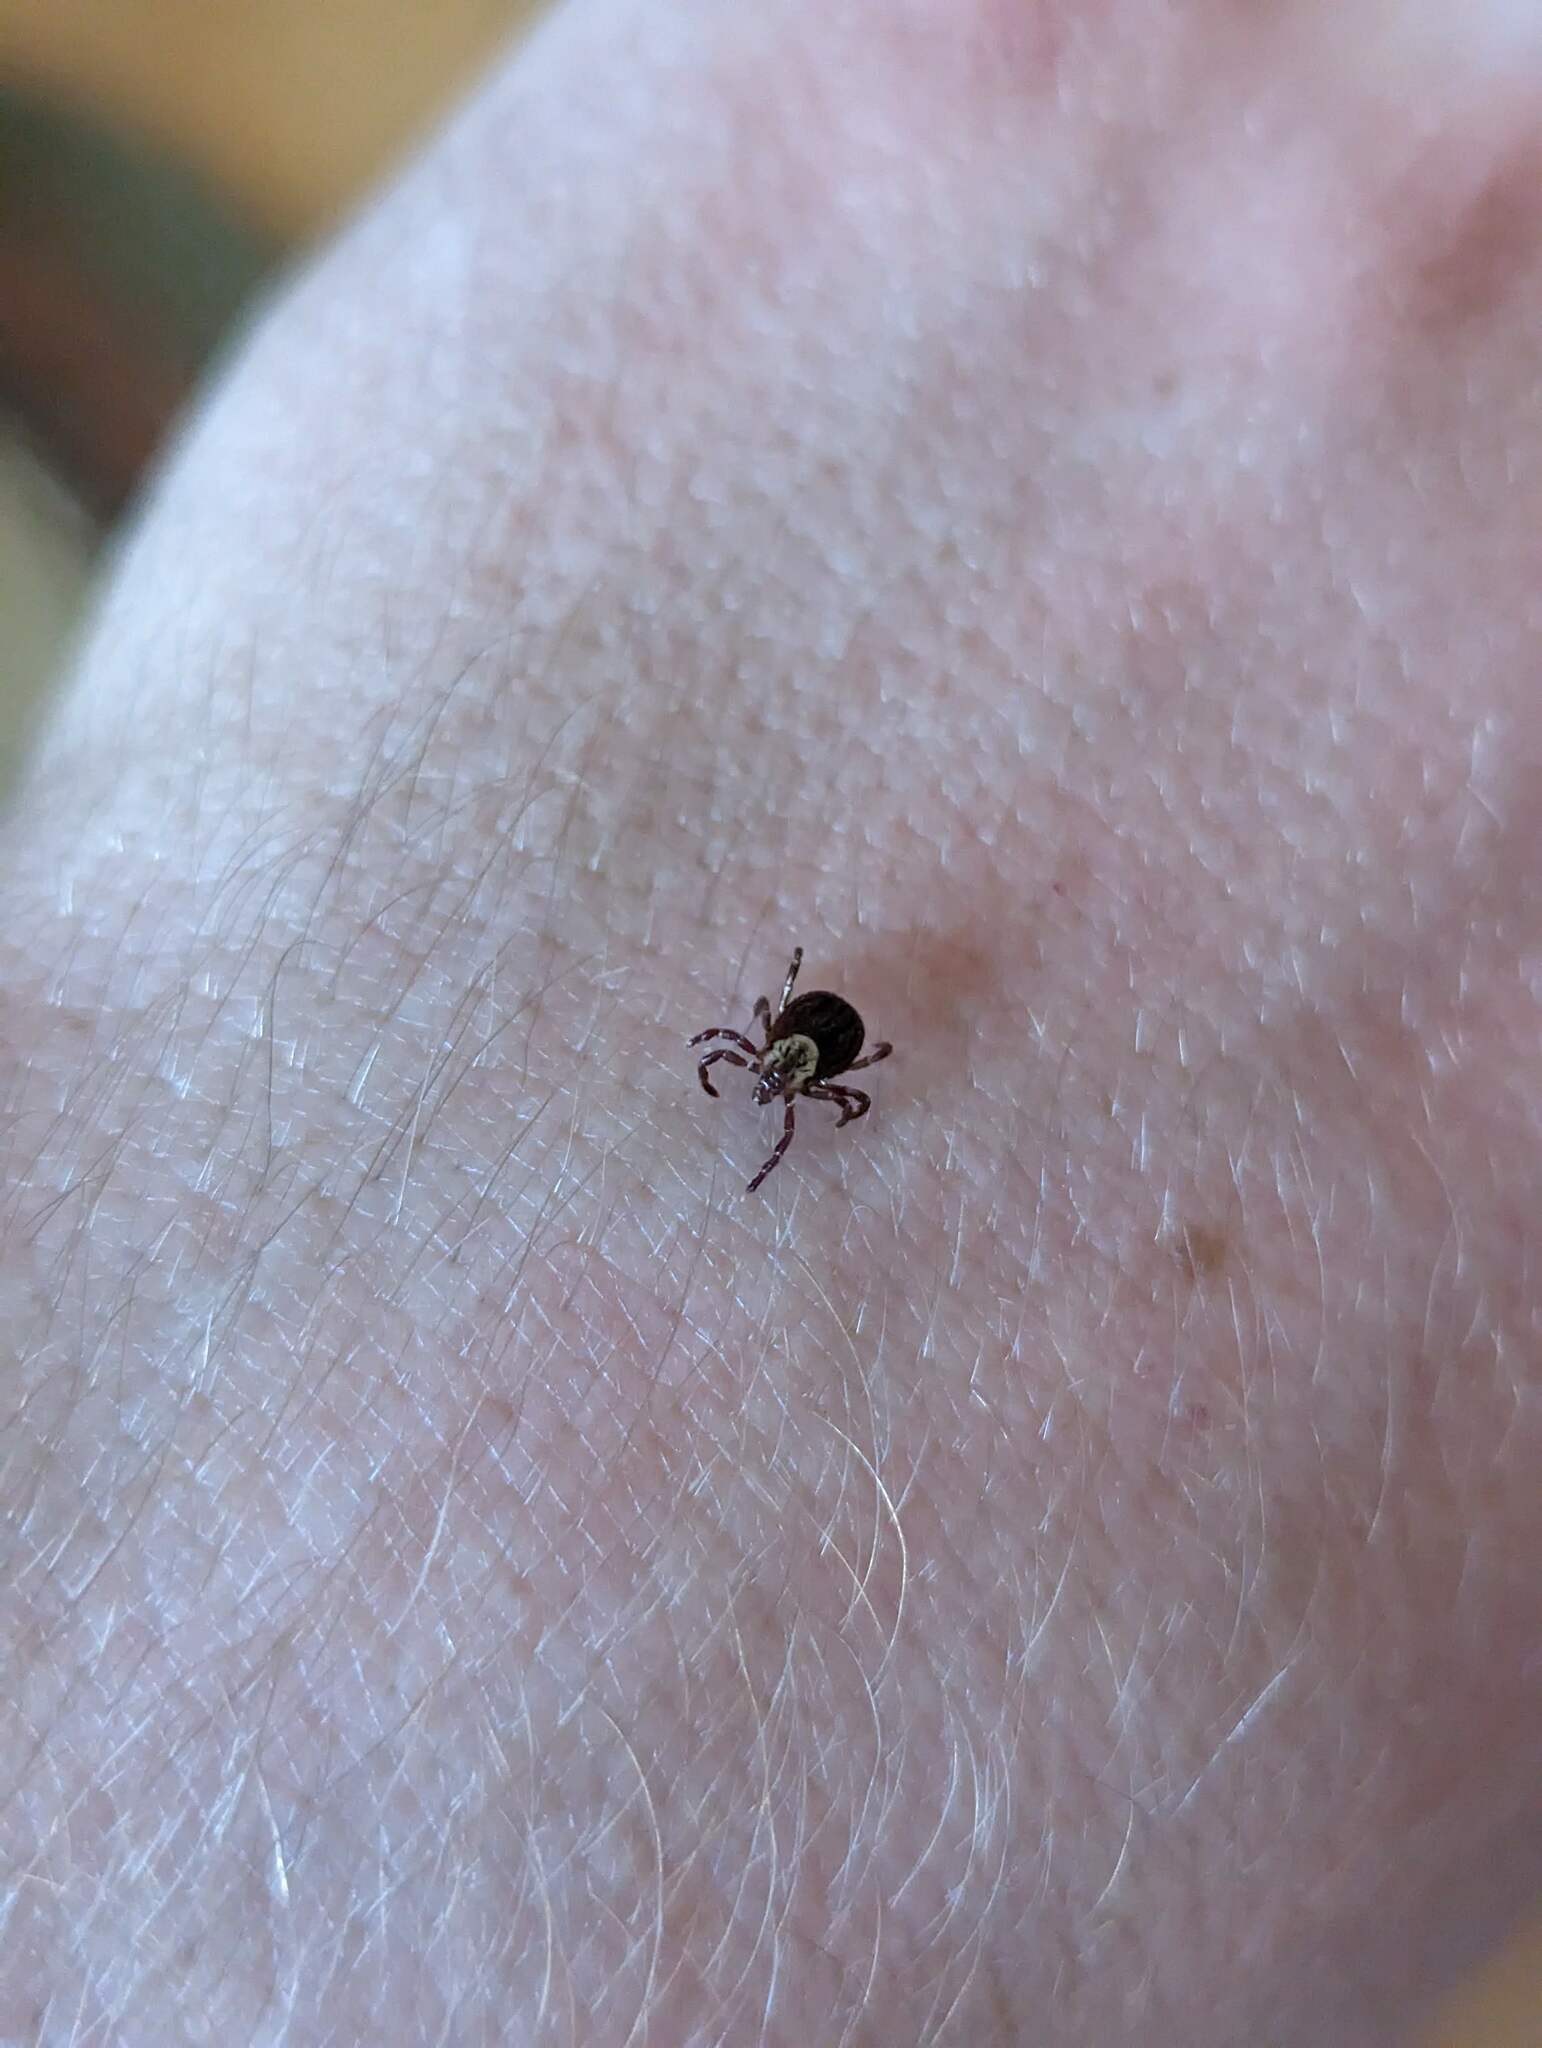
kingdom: Animalia
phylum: Arthropoda
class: Arachnida
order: Ixodida
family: Ixodidae
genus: Dermacentor
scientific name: Dermacentor variabilis
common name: American dog tick
